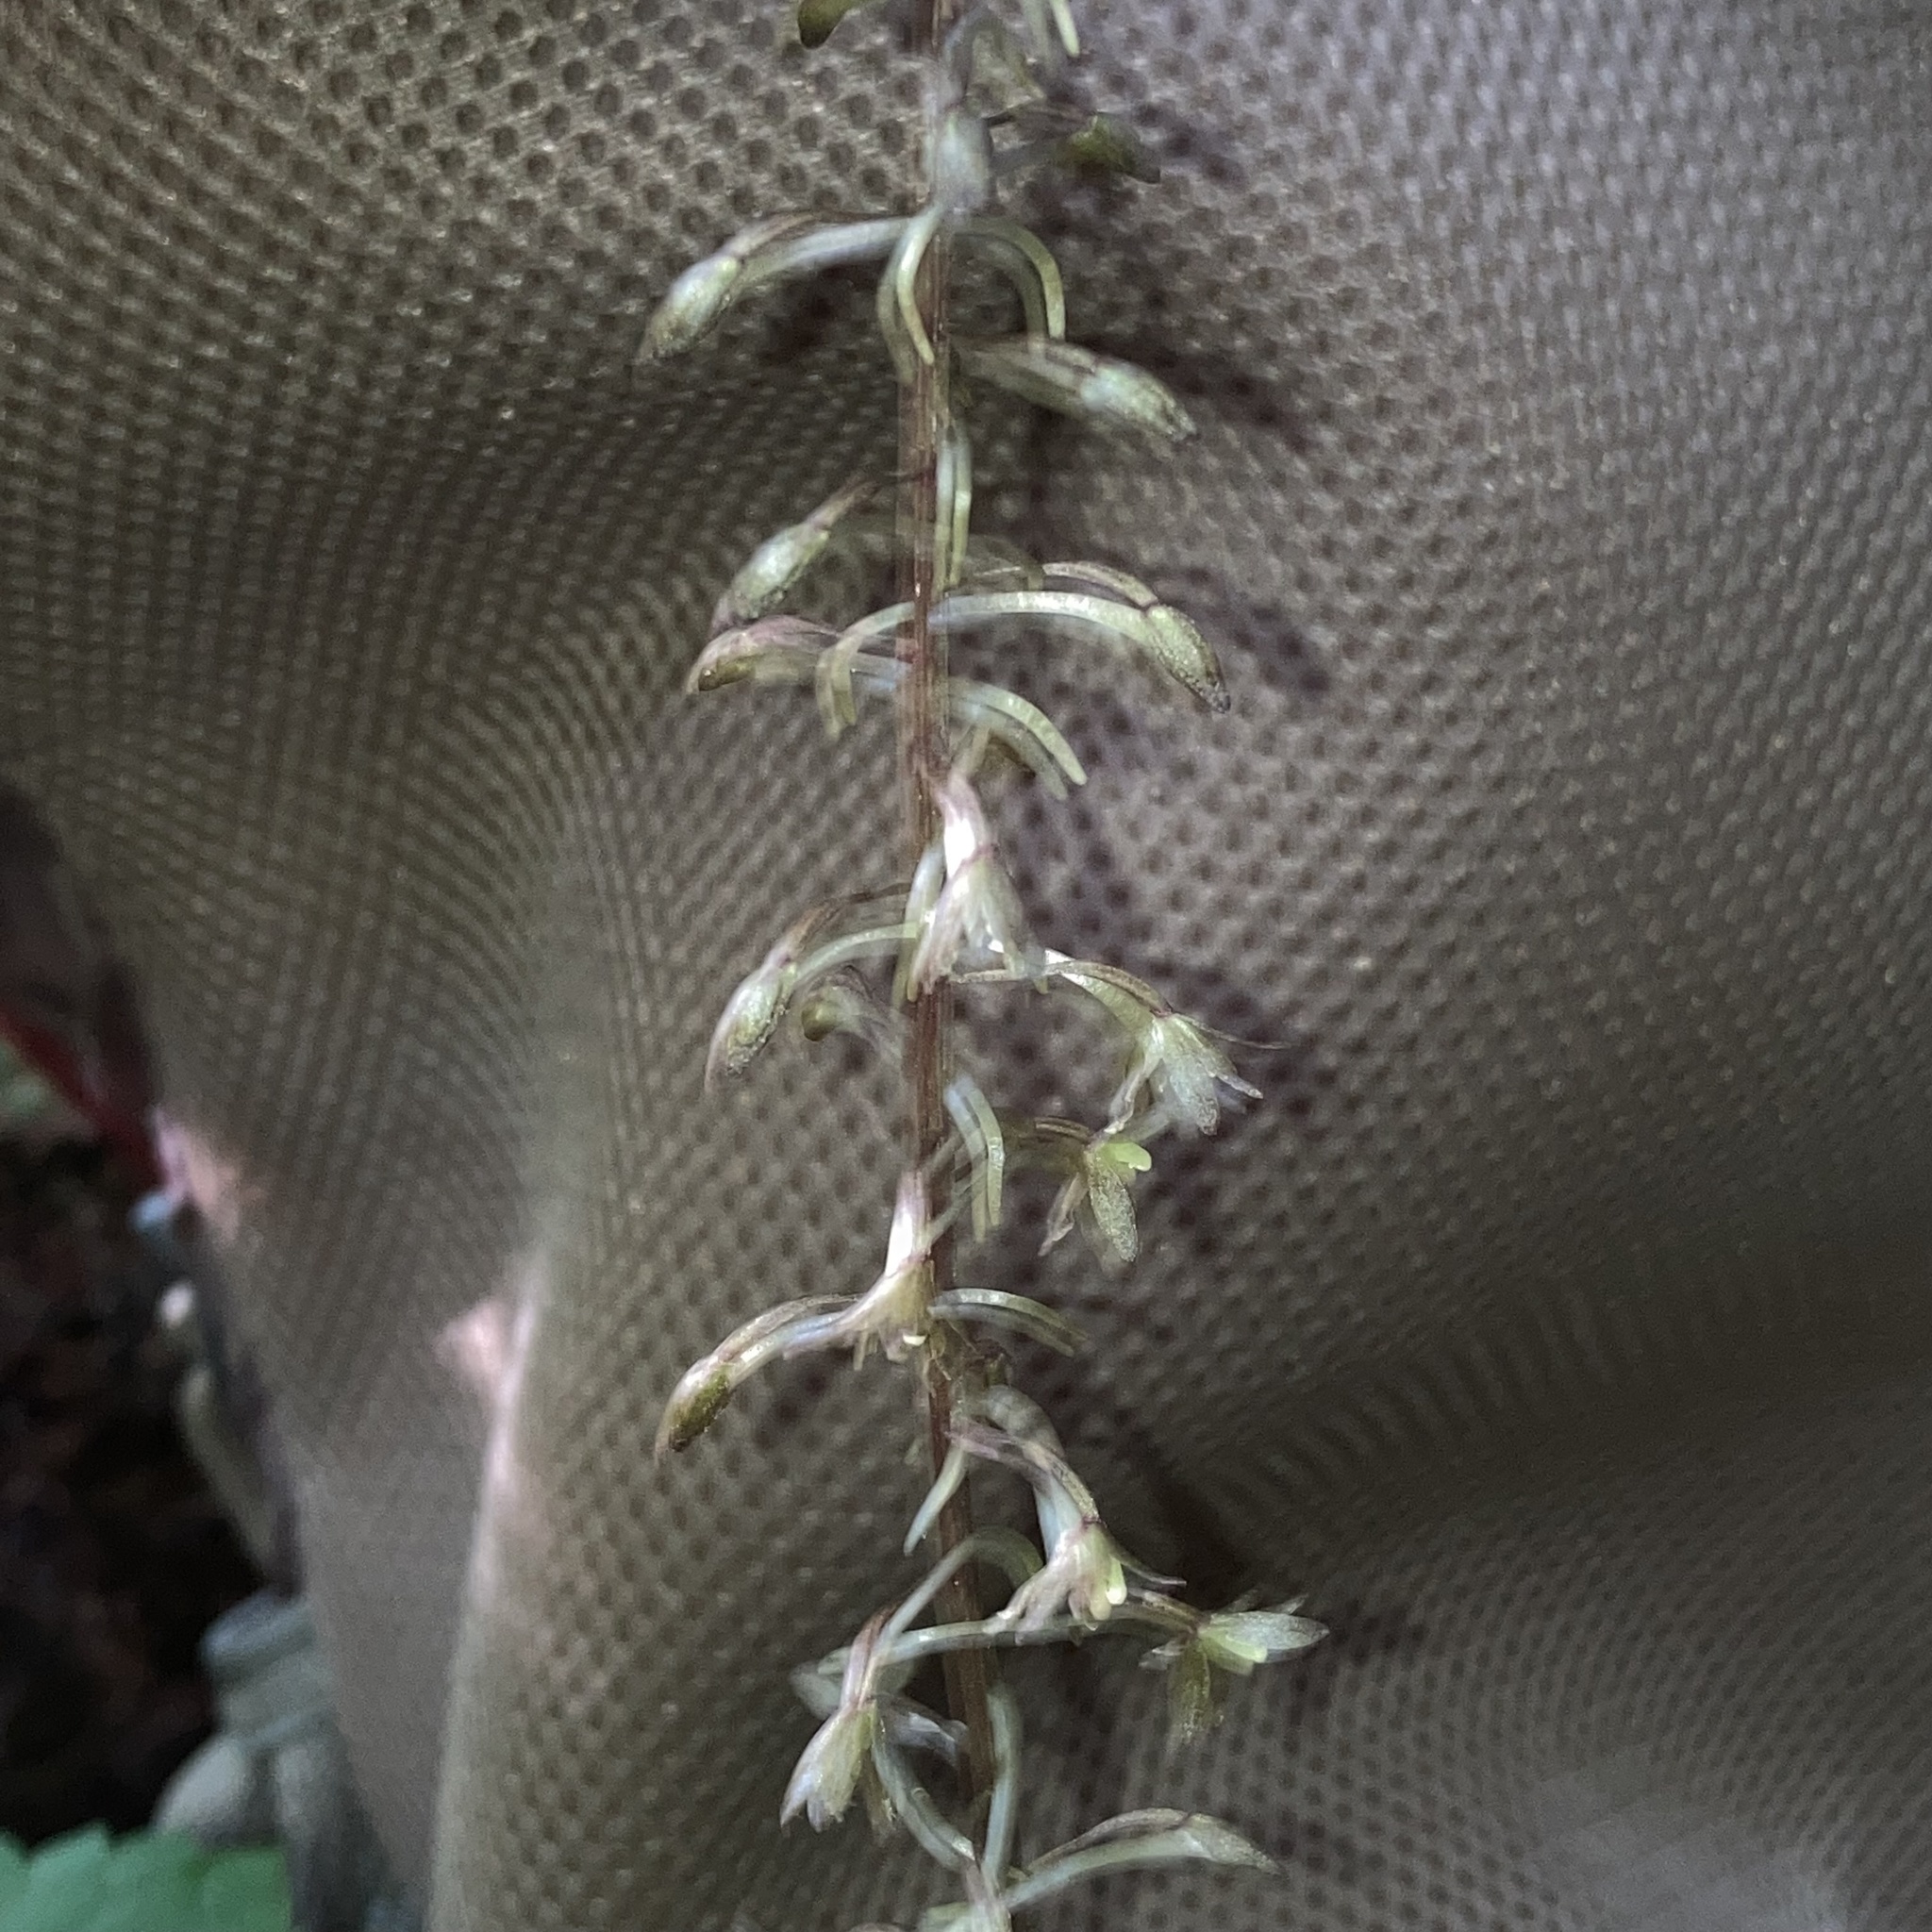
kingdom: Plantae
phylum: Tracheophyta
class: Liliopsida
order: Asparagales
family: Orchidaceae
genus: Tipularia
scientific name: Tipularia discolor
